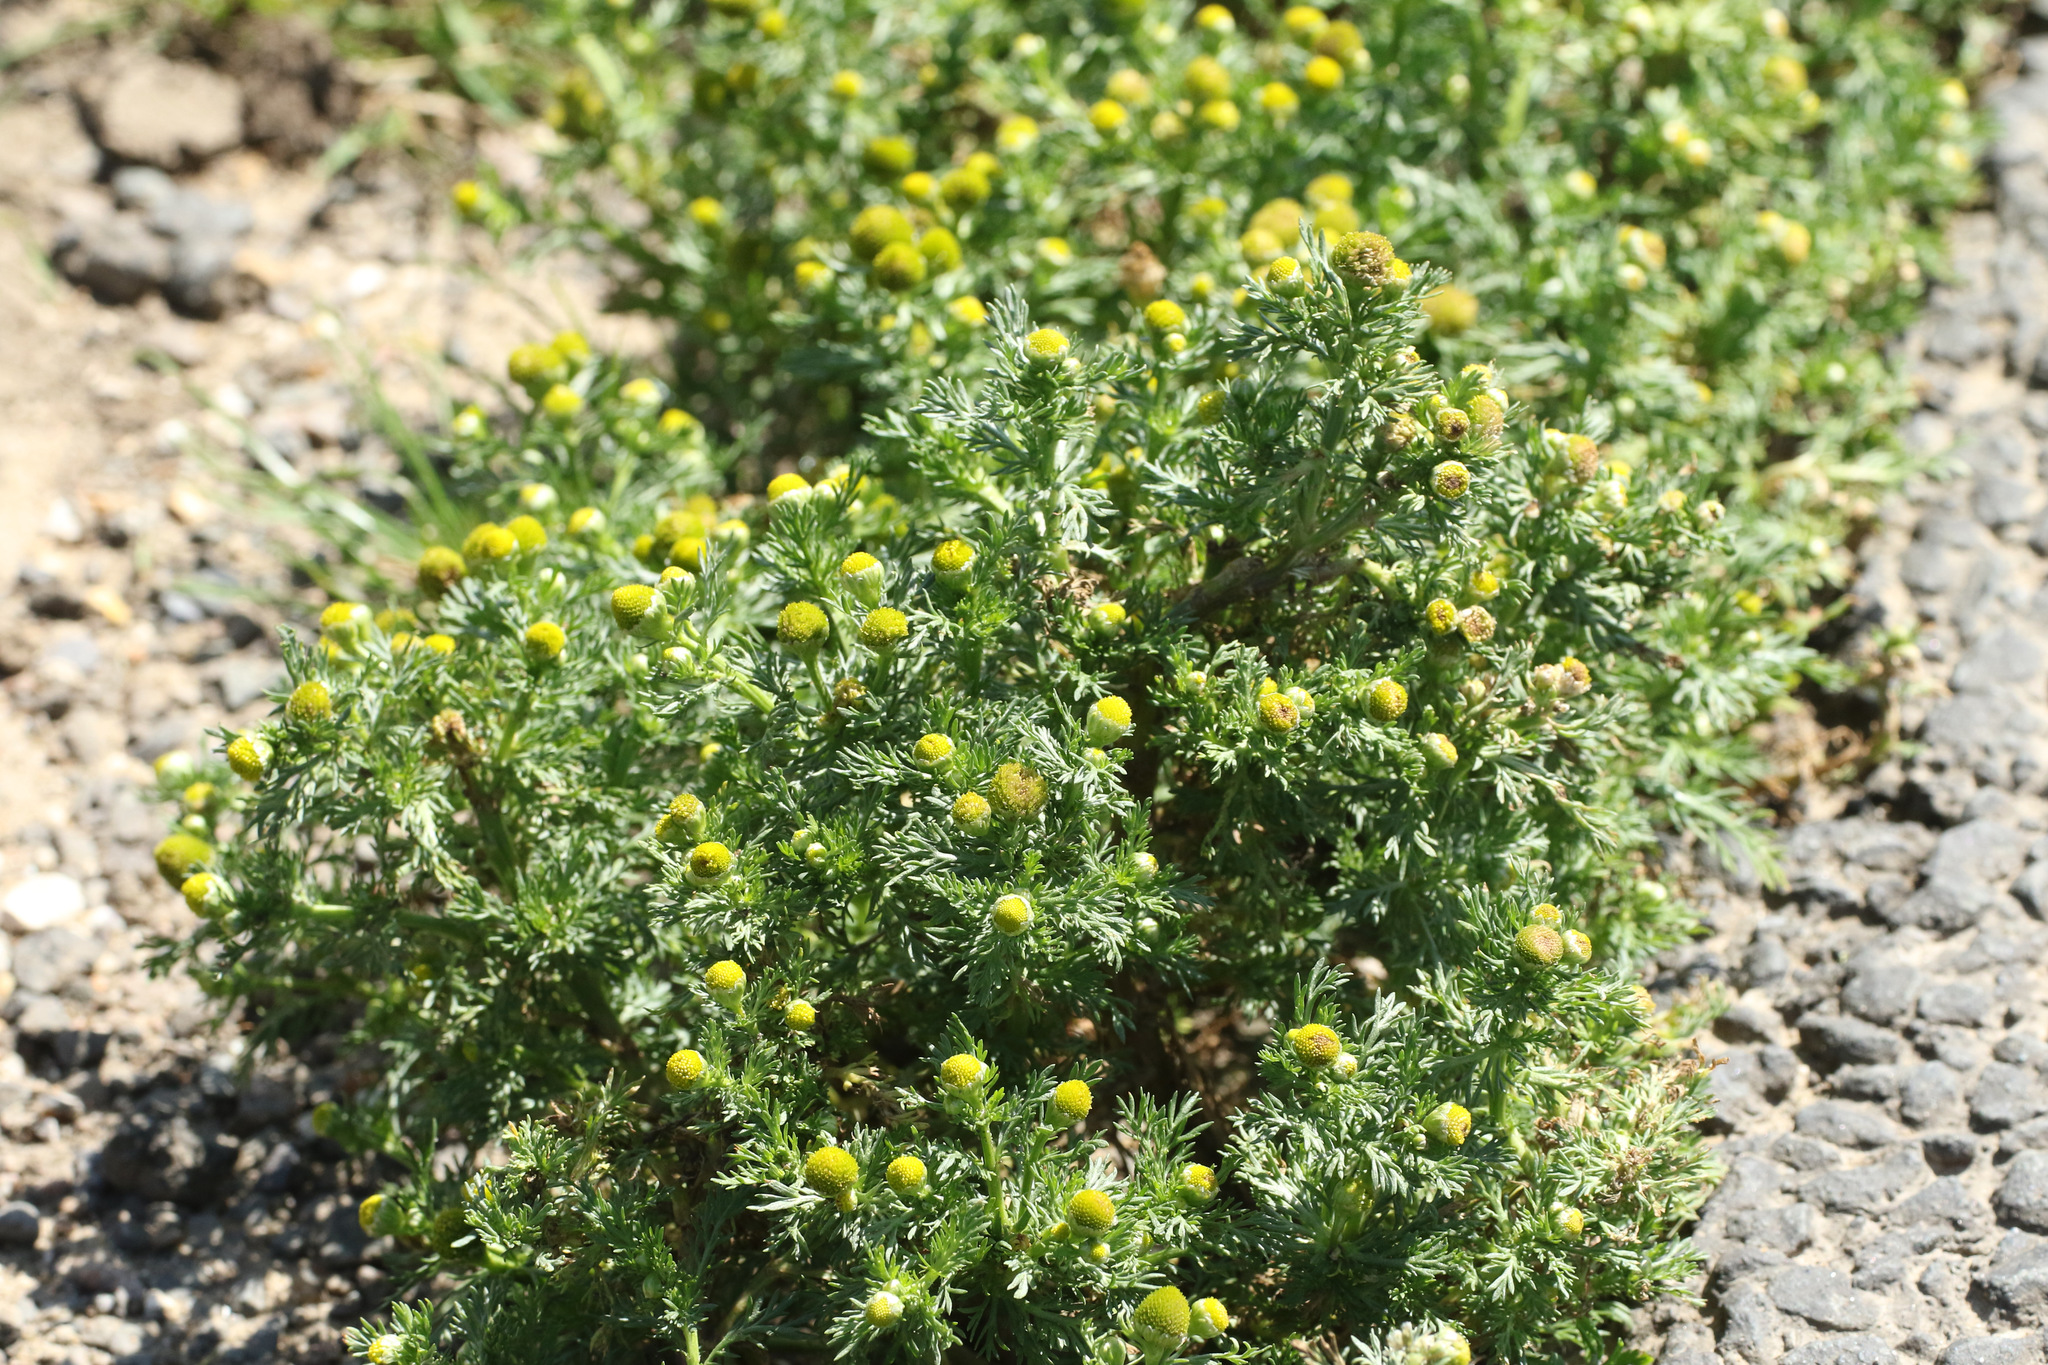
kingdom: Plantae
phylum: Tracheophyta
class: Magnoliopsida
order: Asterales
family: Asteraceae
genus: Matricaria
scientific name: Matricaria discoidea
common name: Disc mayweed
